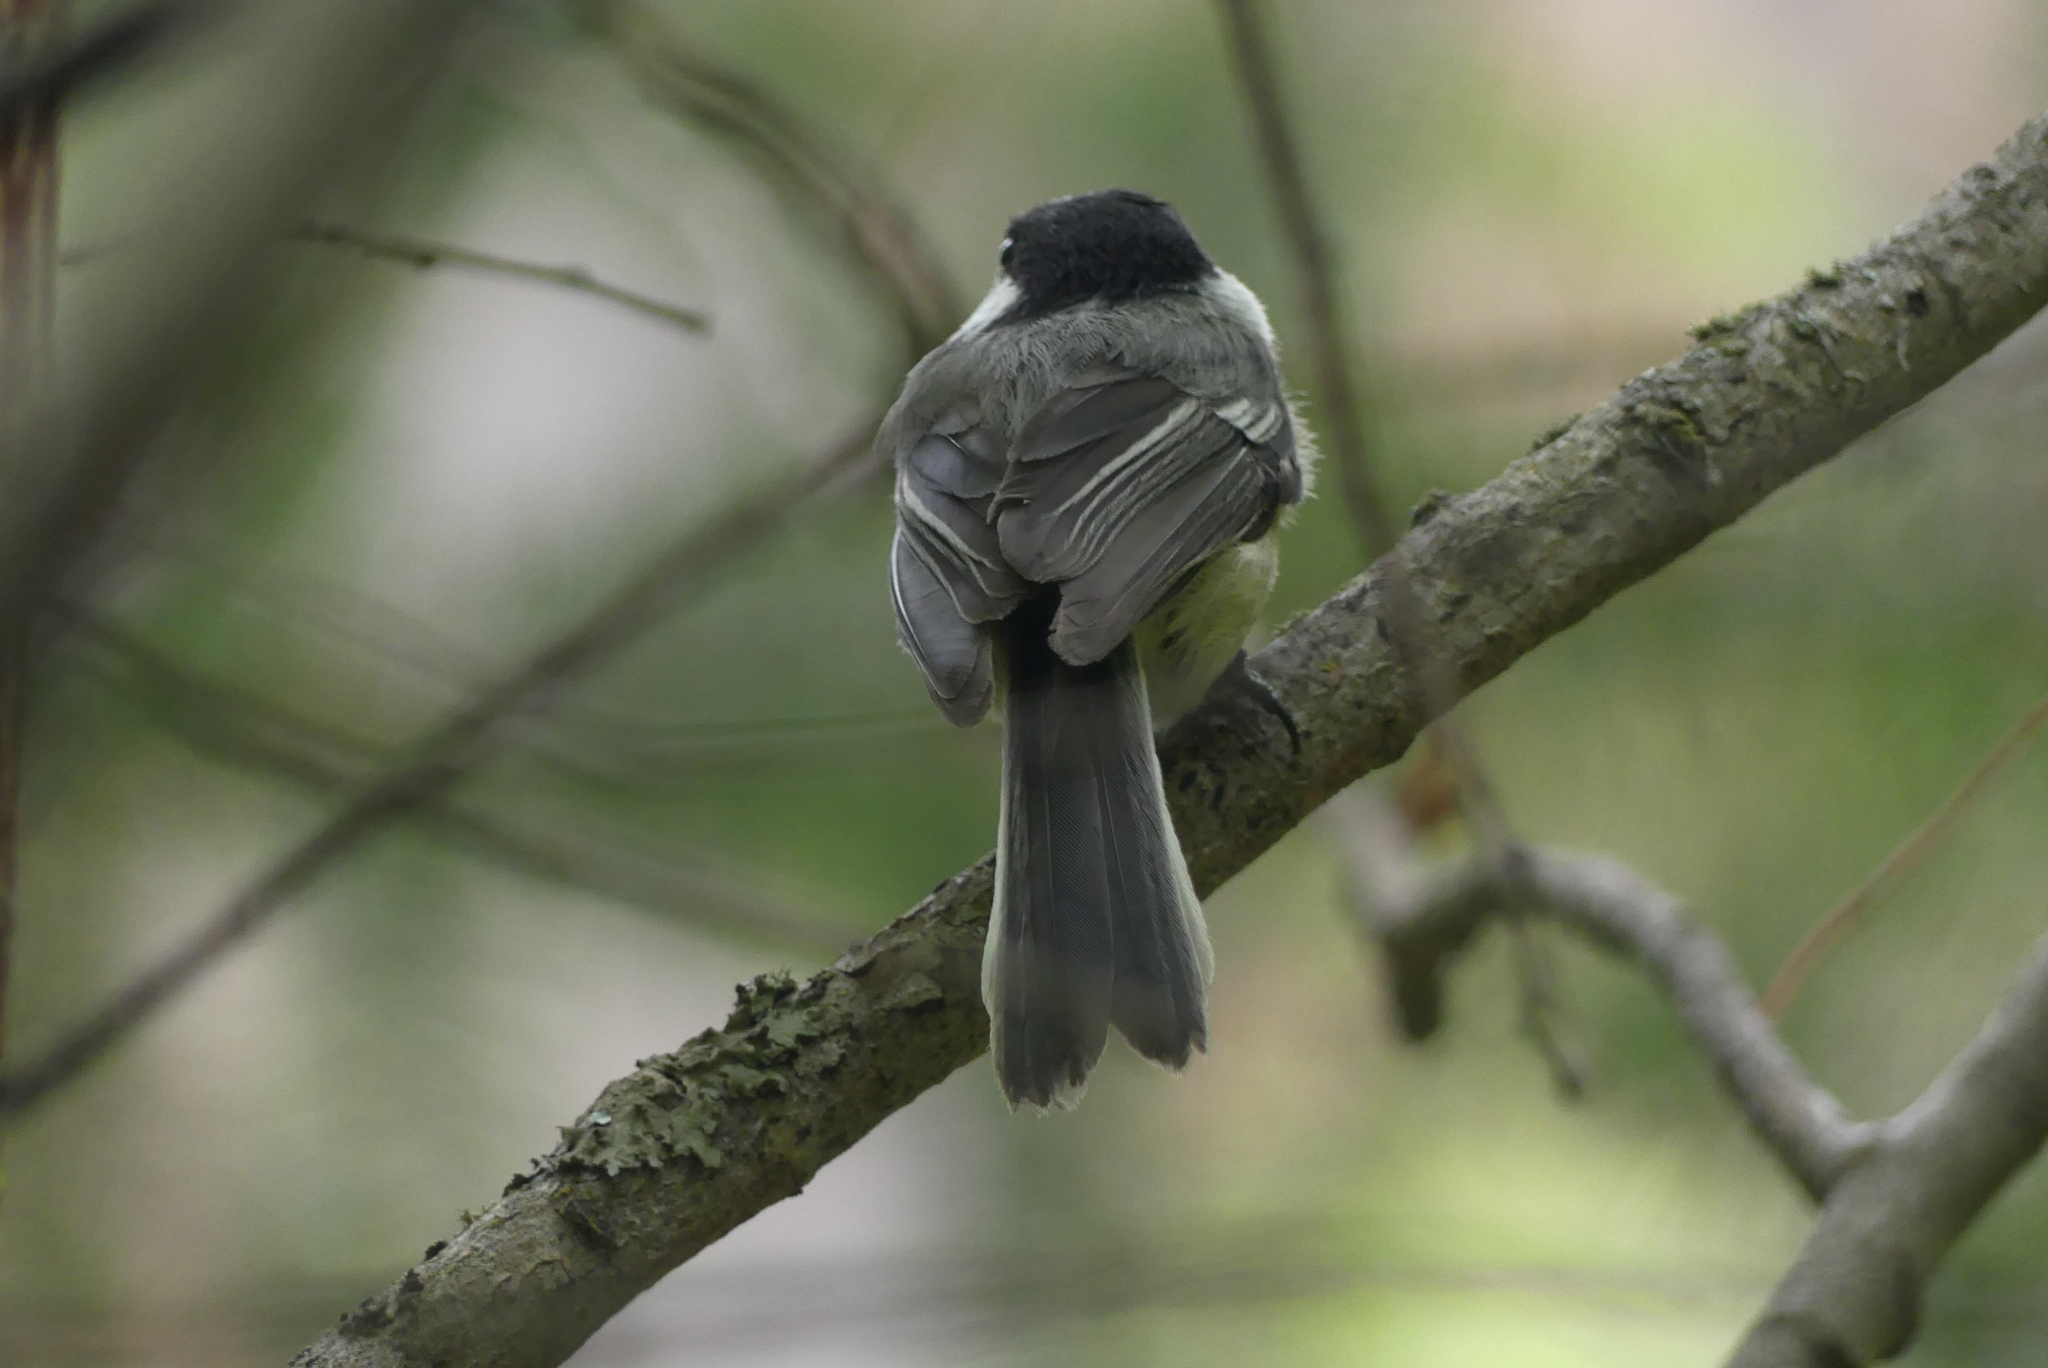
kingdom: Animalia
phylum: Chordata
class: Aves
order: Passeriformes
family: Paridae
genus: Poecile
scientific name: Poecile atricapillus
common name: Black-capped chickadee
